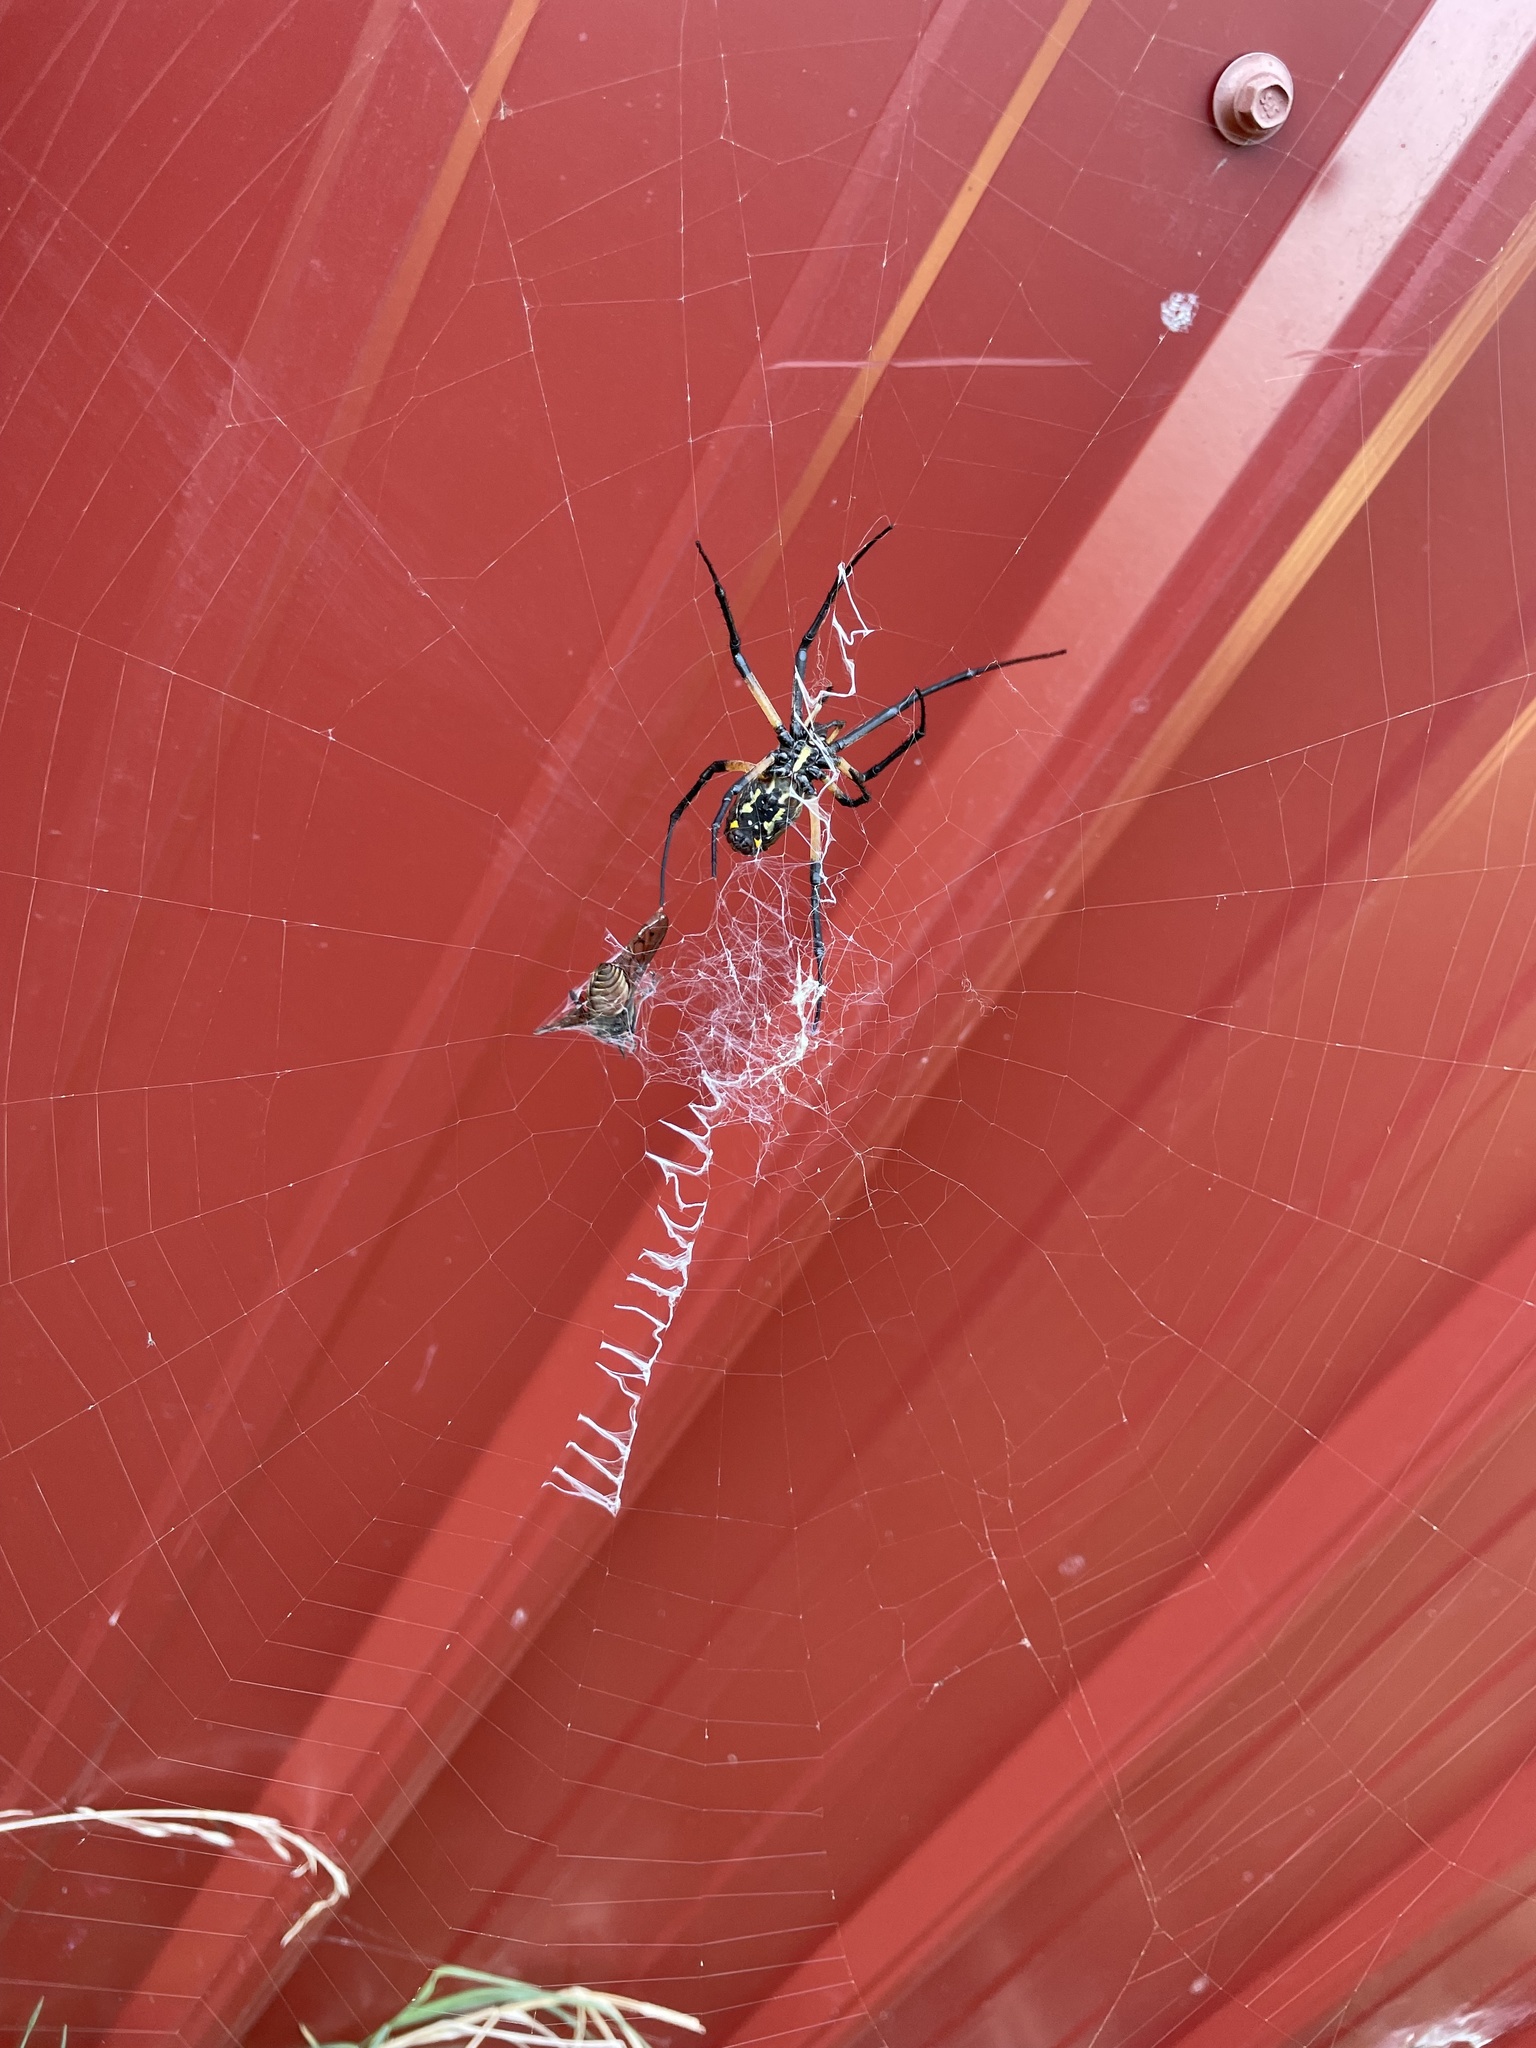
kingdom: Animalia
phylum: Arthropoda
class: Arachnida
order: Araneae
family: Araneidae
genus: Argiope
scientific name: Argiope aurantia
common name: Orb weavers
